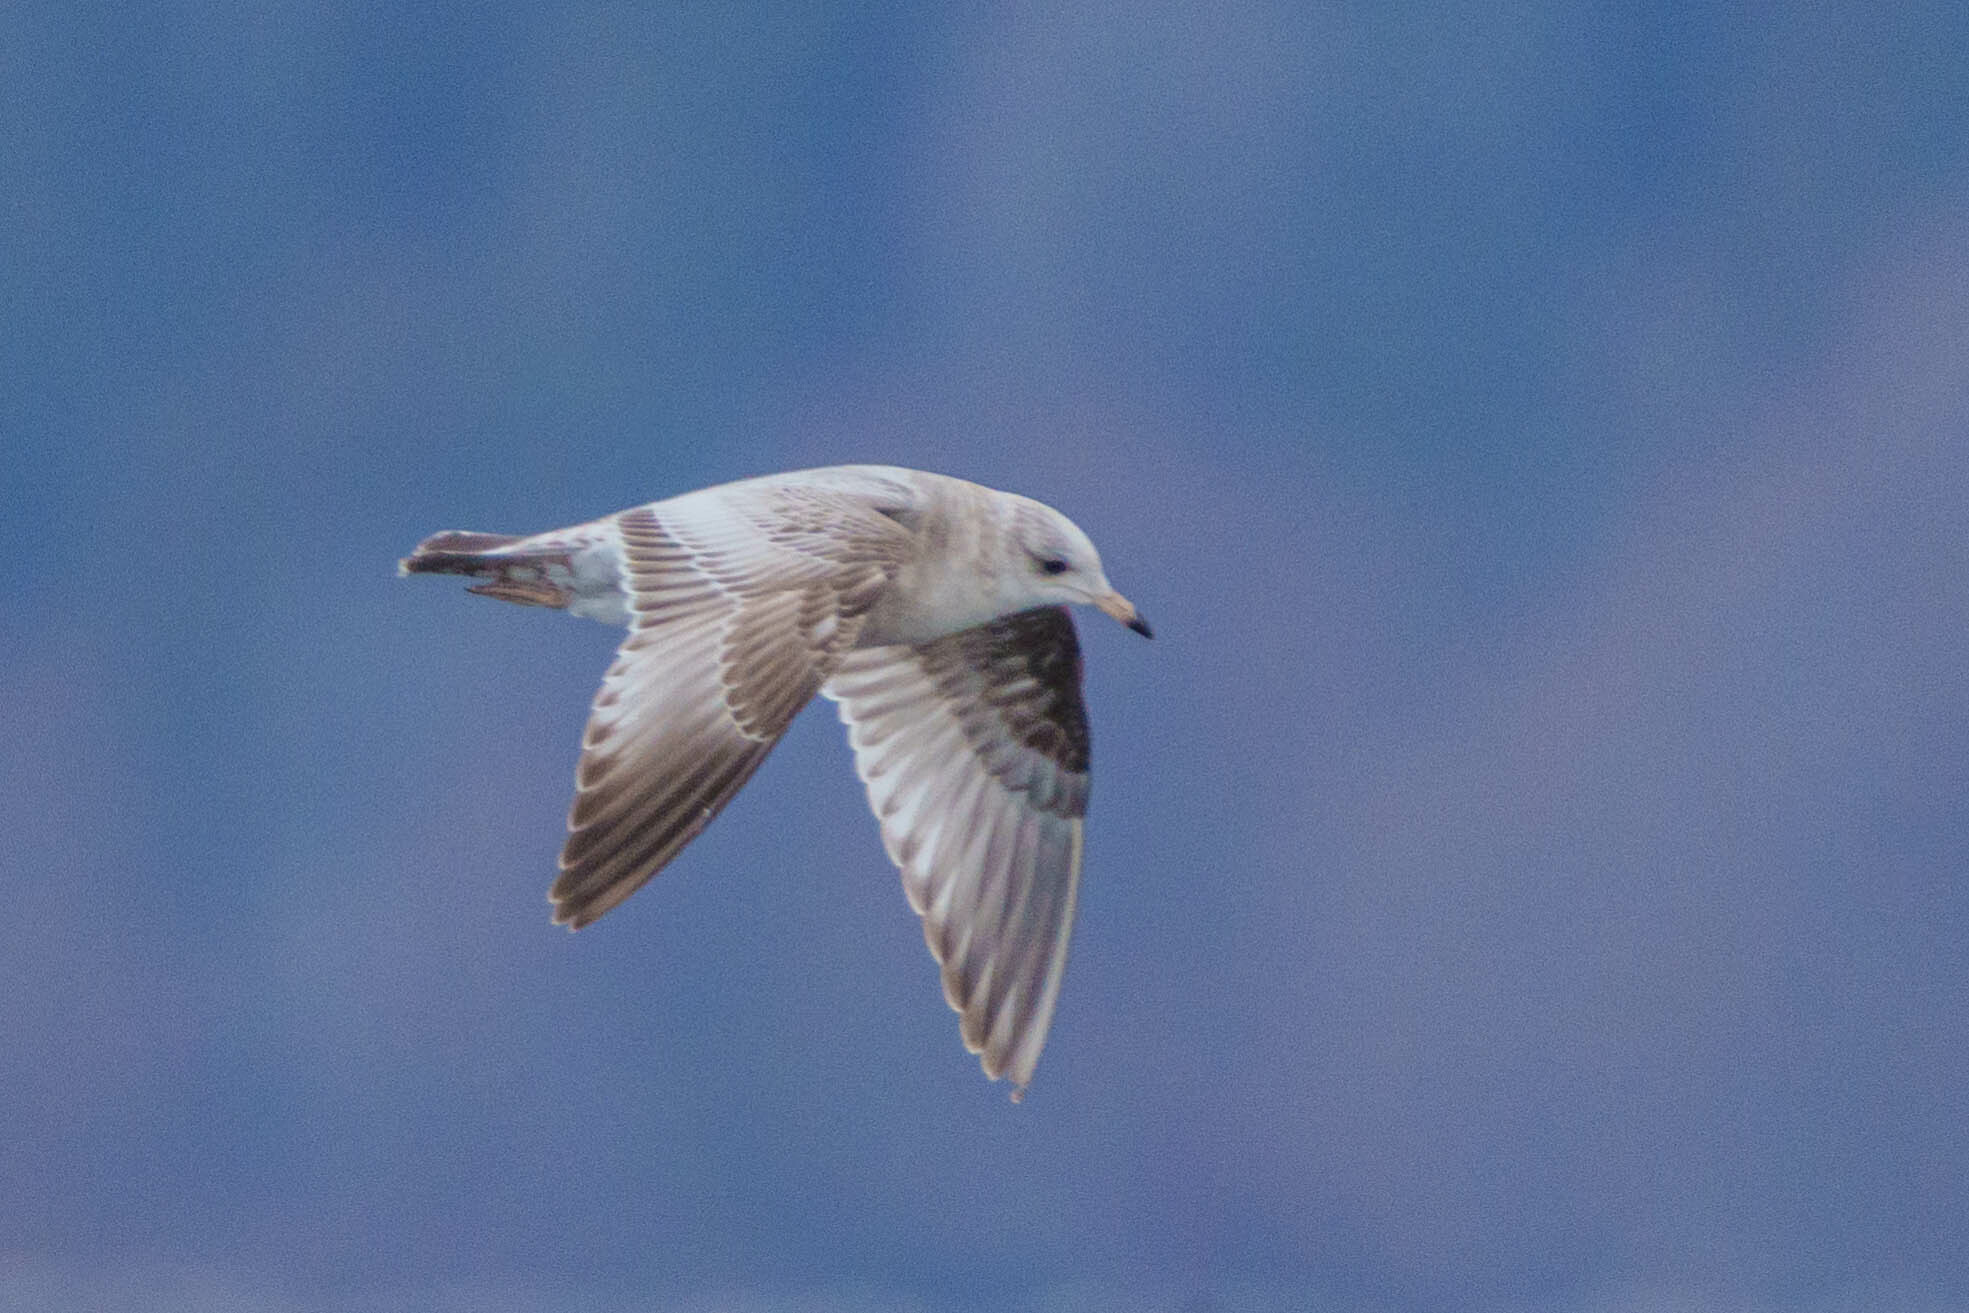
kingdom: Animalia
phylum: Chordata
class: Aves
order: Charadriiformes
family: Laridae
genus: Larus
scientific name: Larus brachyrhynchus
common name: Short-billed gull
